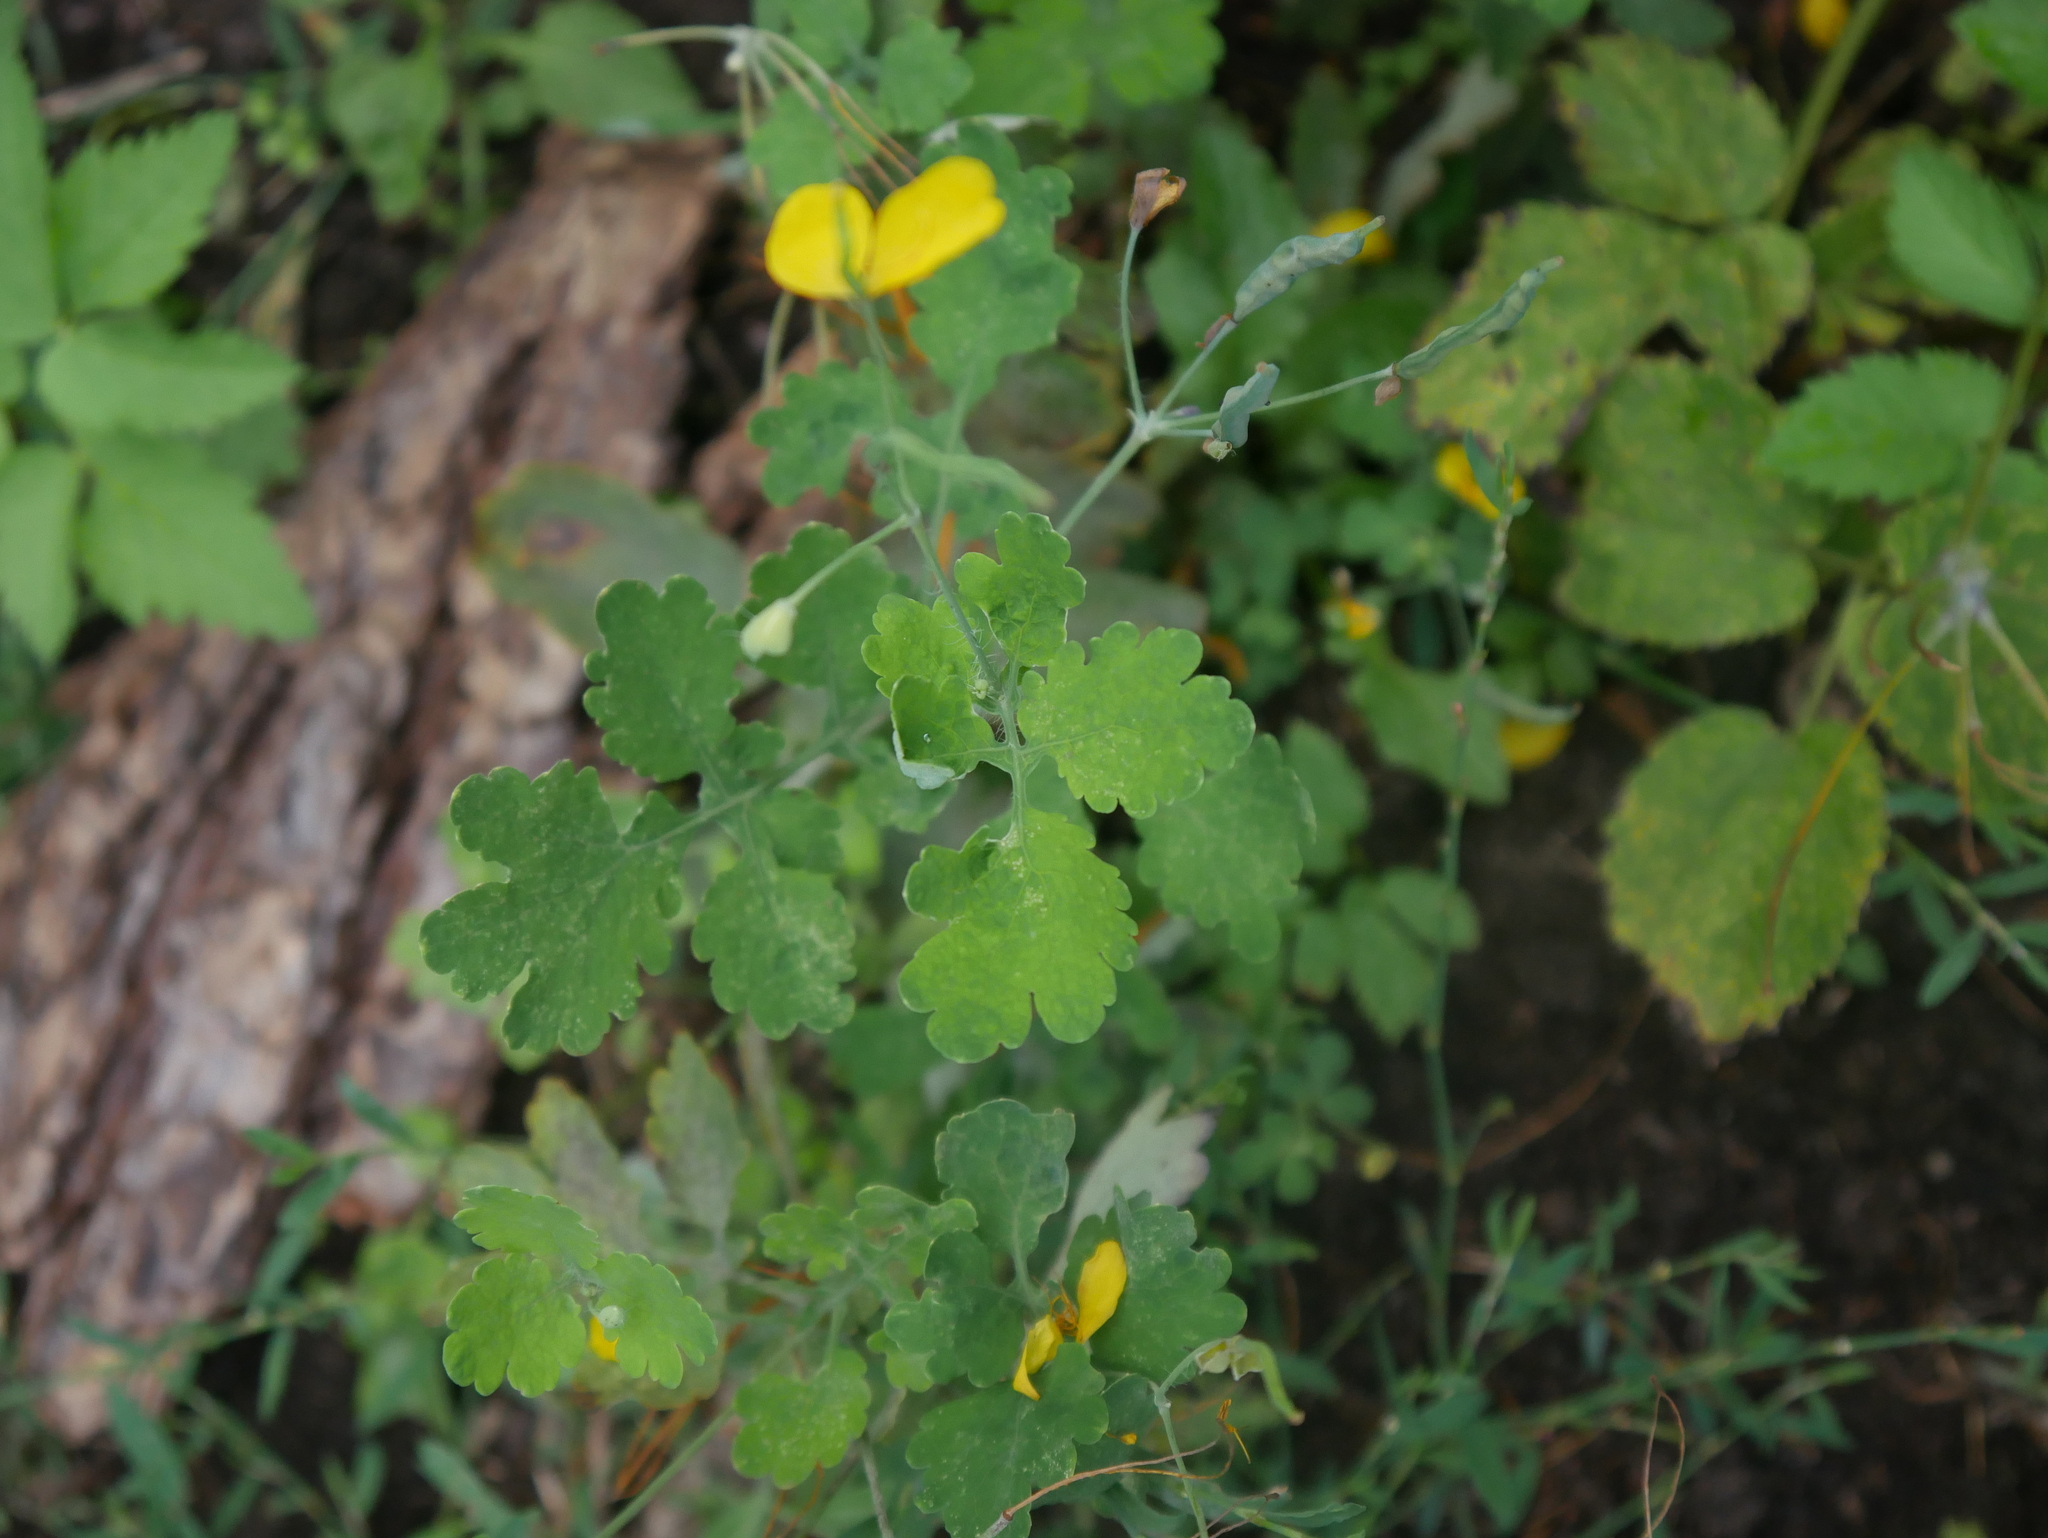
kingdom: Plantae
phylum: Tracheophyta
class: Magnoliopsida
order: Ranunculales
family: Papaveraceae
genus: Chelidonium
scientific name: Chelidonium majus
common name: Greater celandine
